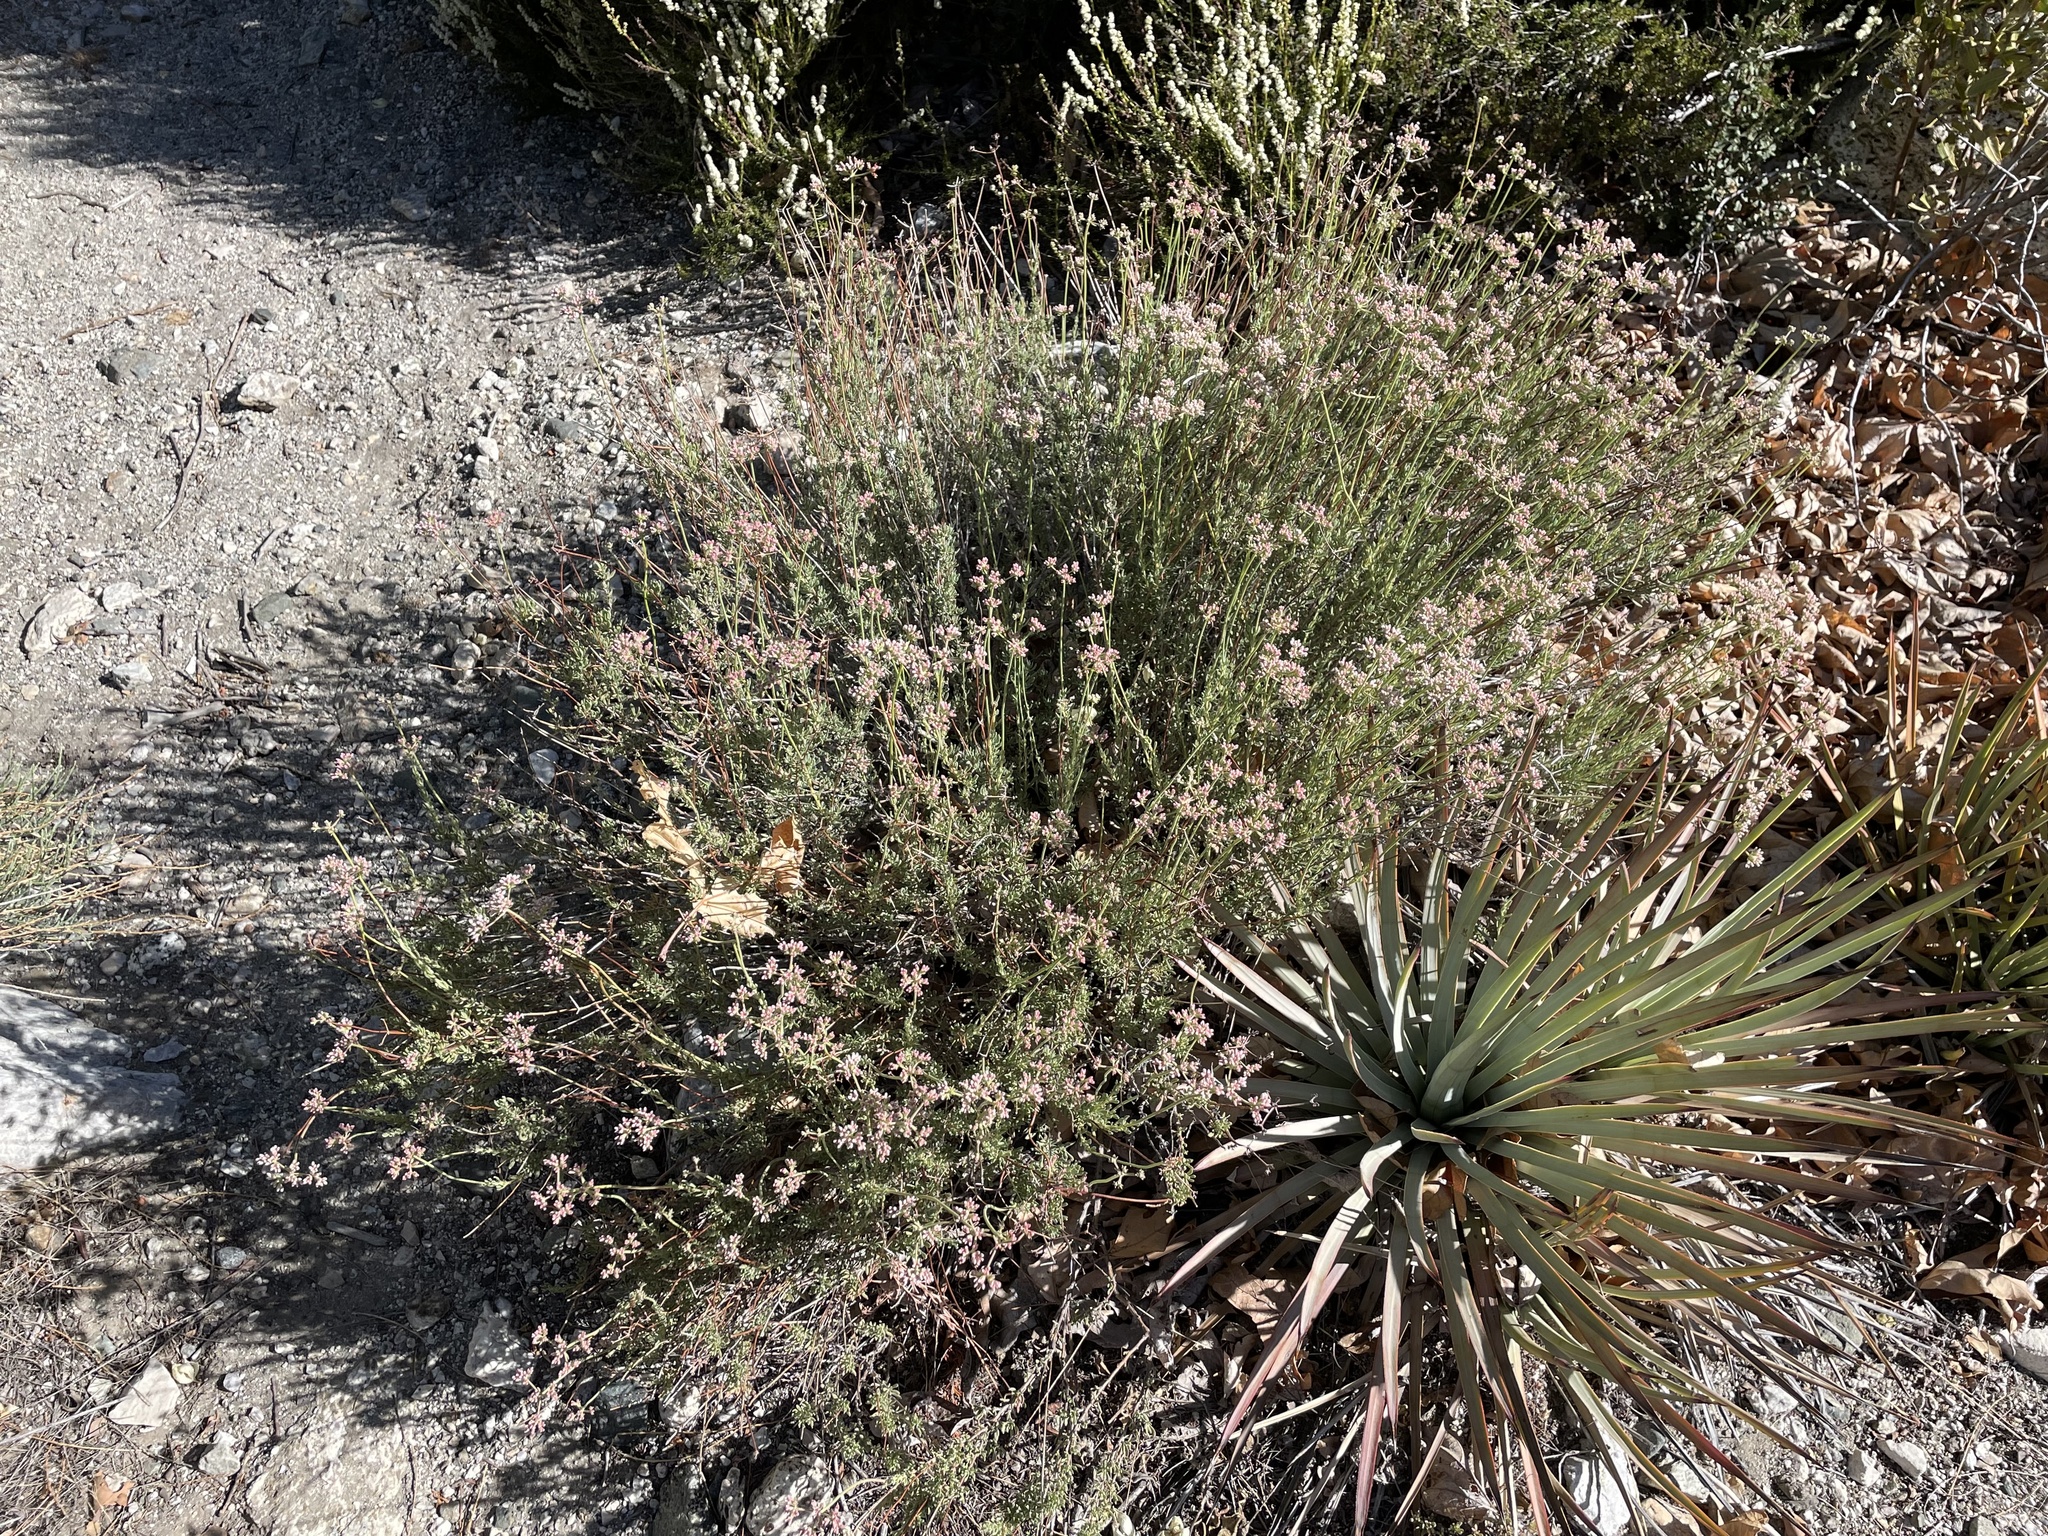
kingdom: Plantae
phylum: Tracheophyta
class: Magnoliopsida
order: Caryophyllales
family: Polygonaceae
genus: Eriogonum
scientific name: Eriogonum fasciculatum
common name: California wild buckwheat
